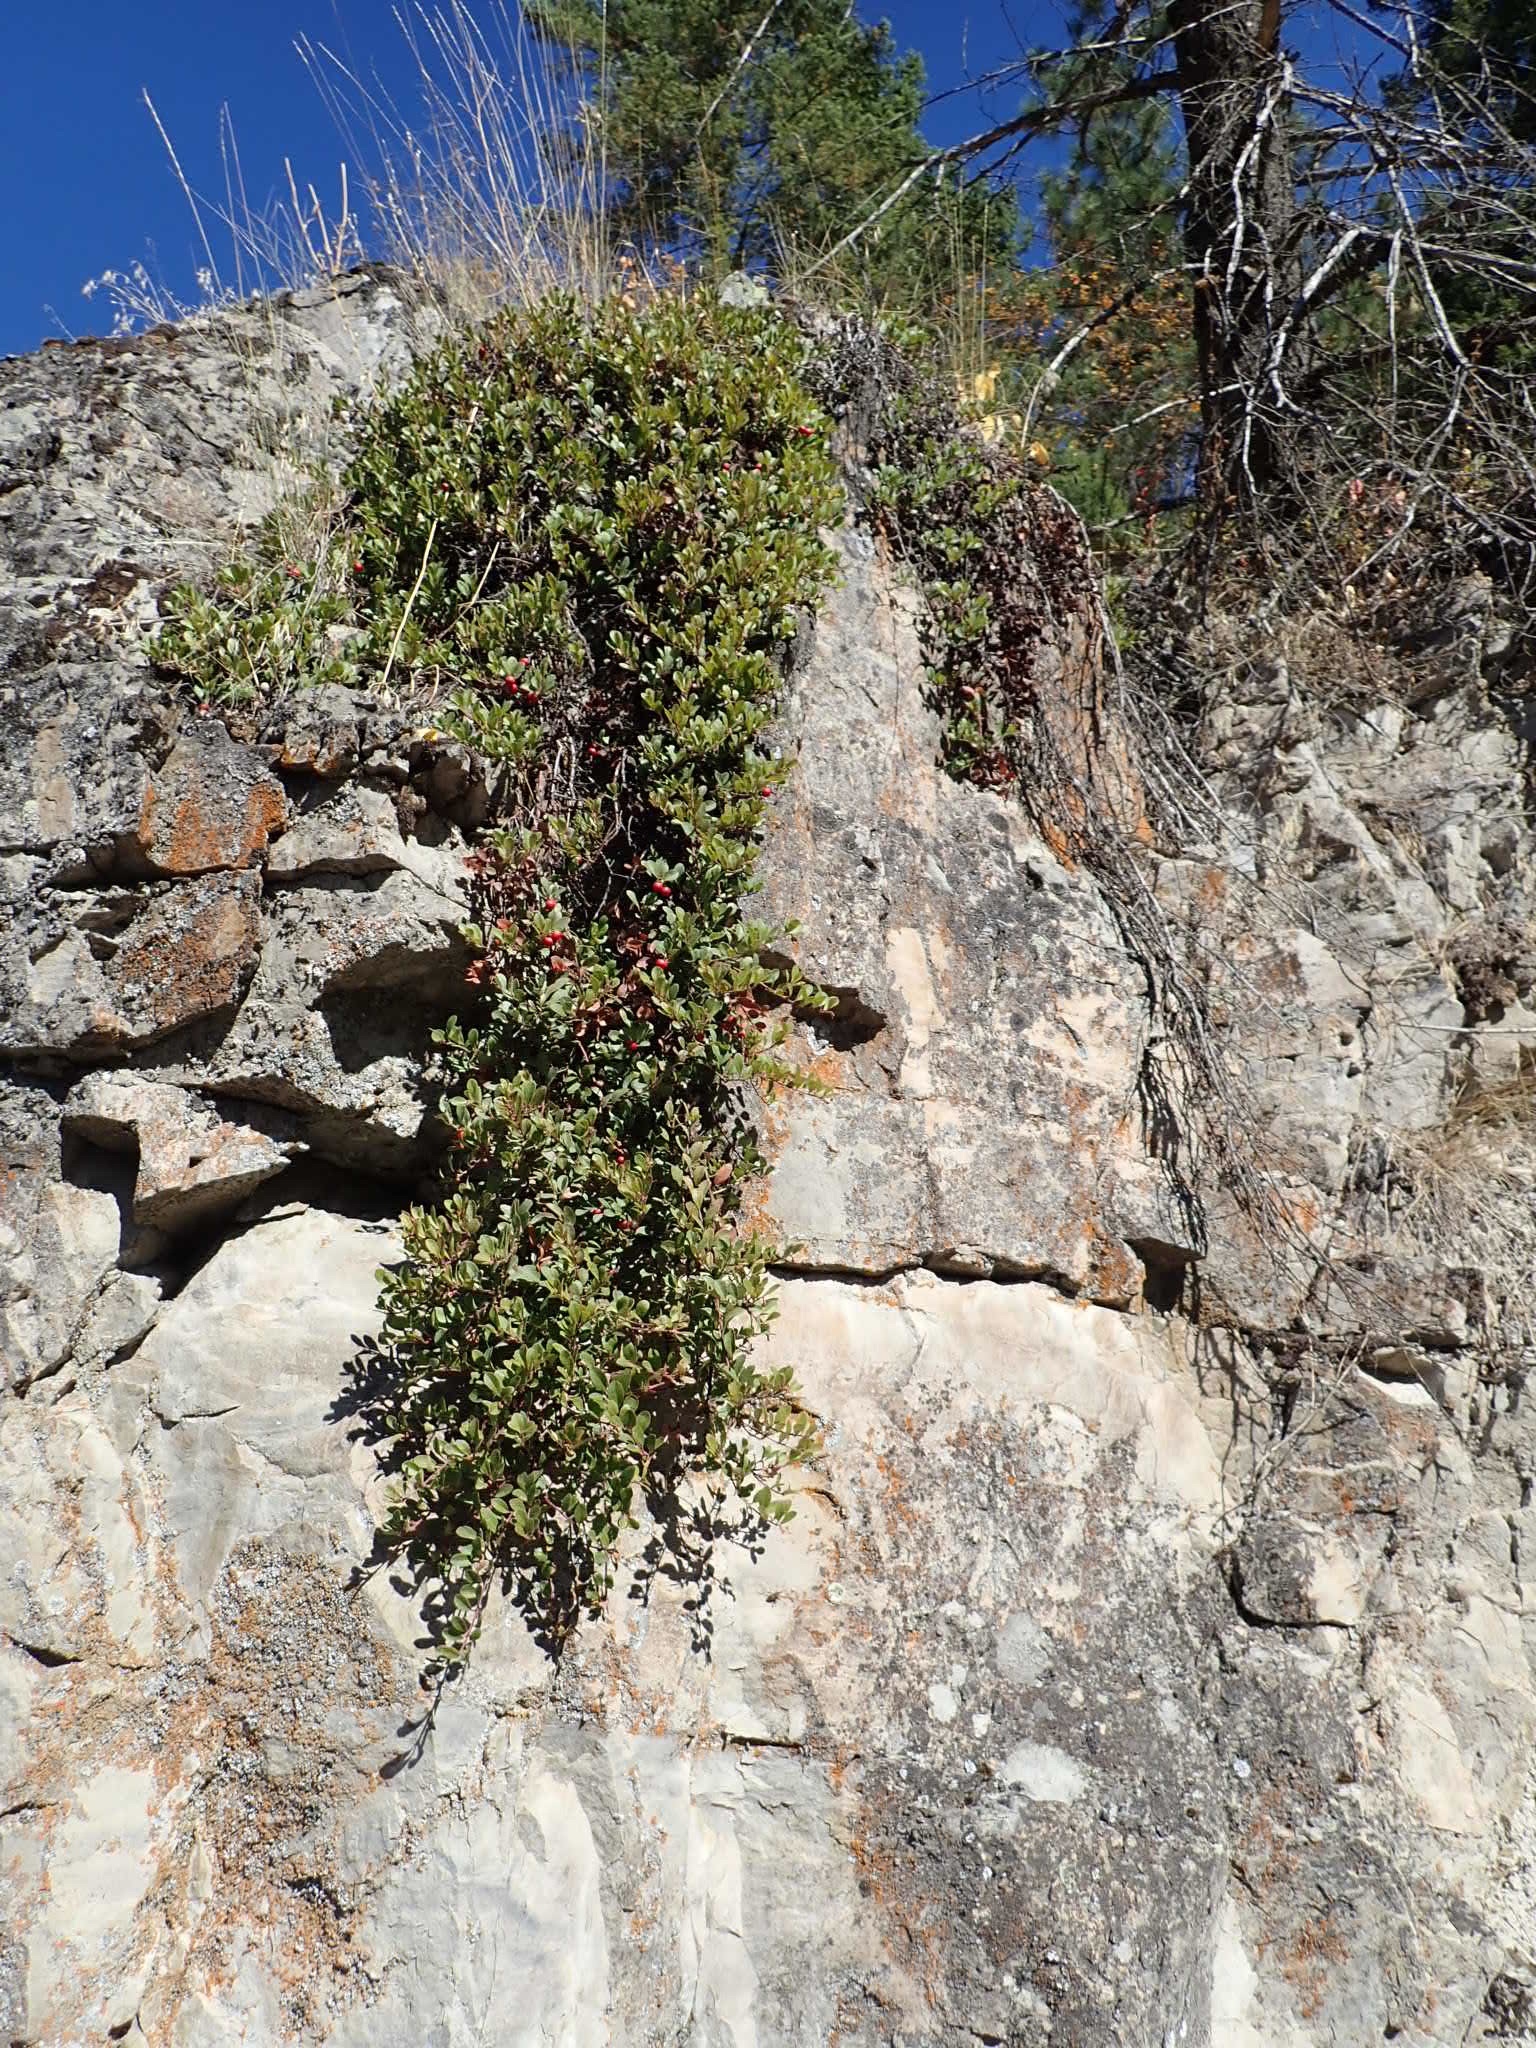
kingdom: Plantae
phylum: Tracheophyta
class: Magnoliopsida
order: Ericales
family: Ericaceae
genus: Arctostaphylos
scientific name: Arctostaphylos uva-ursi
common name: Bearberry
